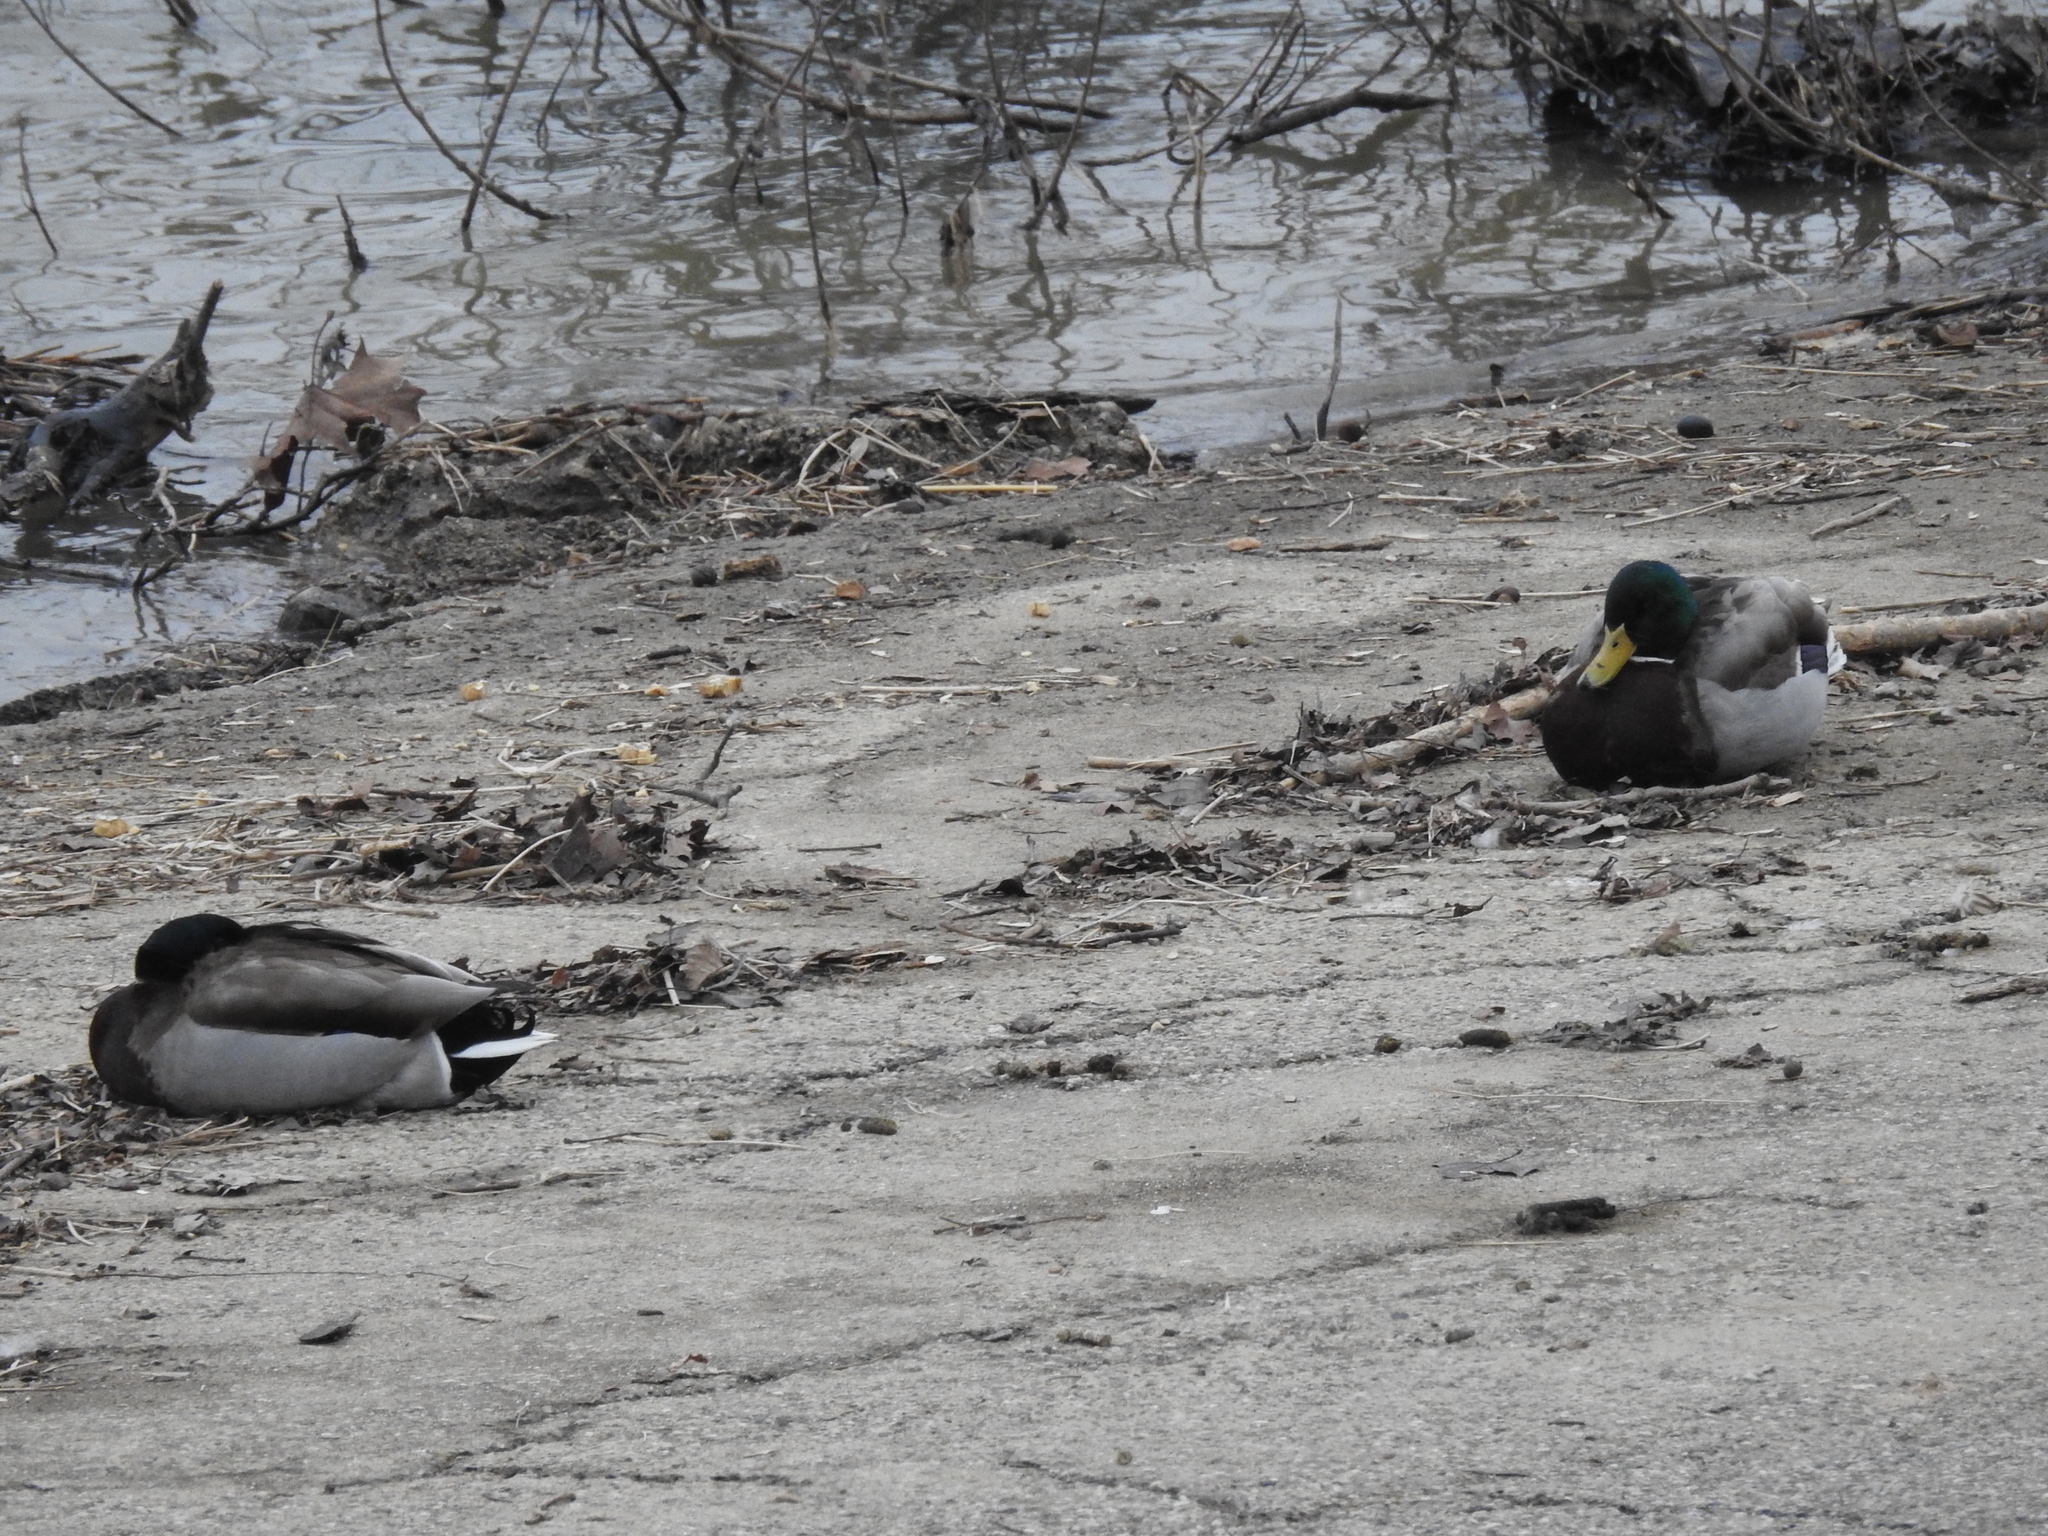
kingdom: Animalia
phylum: Chordata
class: Aves
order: Anseriformes
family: Anatidae
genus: Anas
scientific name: Anas platyrhynchos
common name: Mallard
